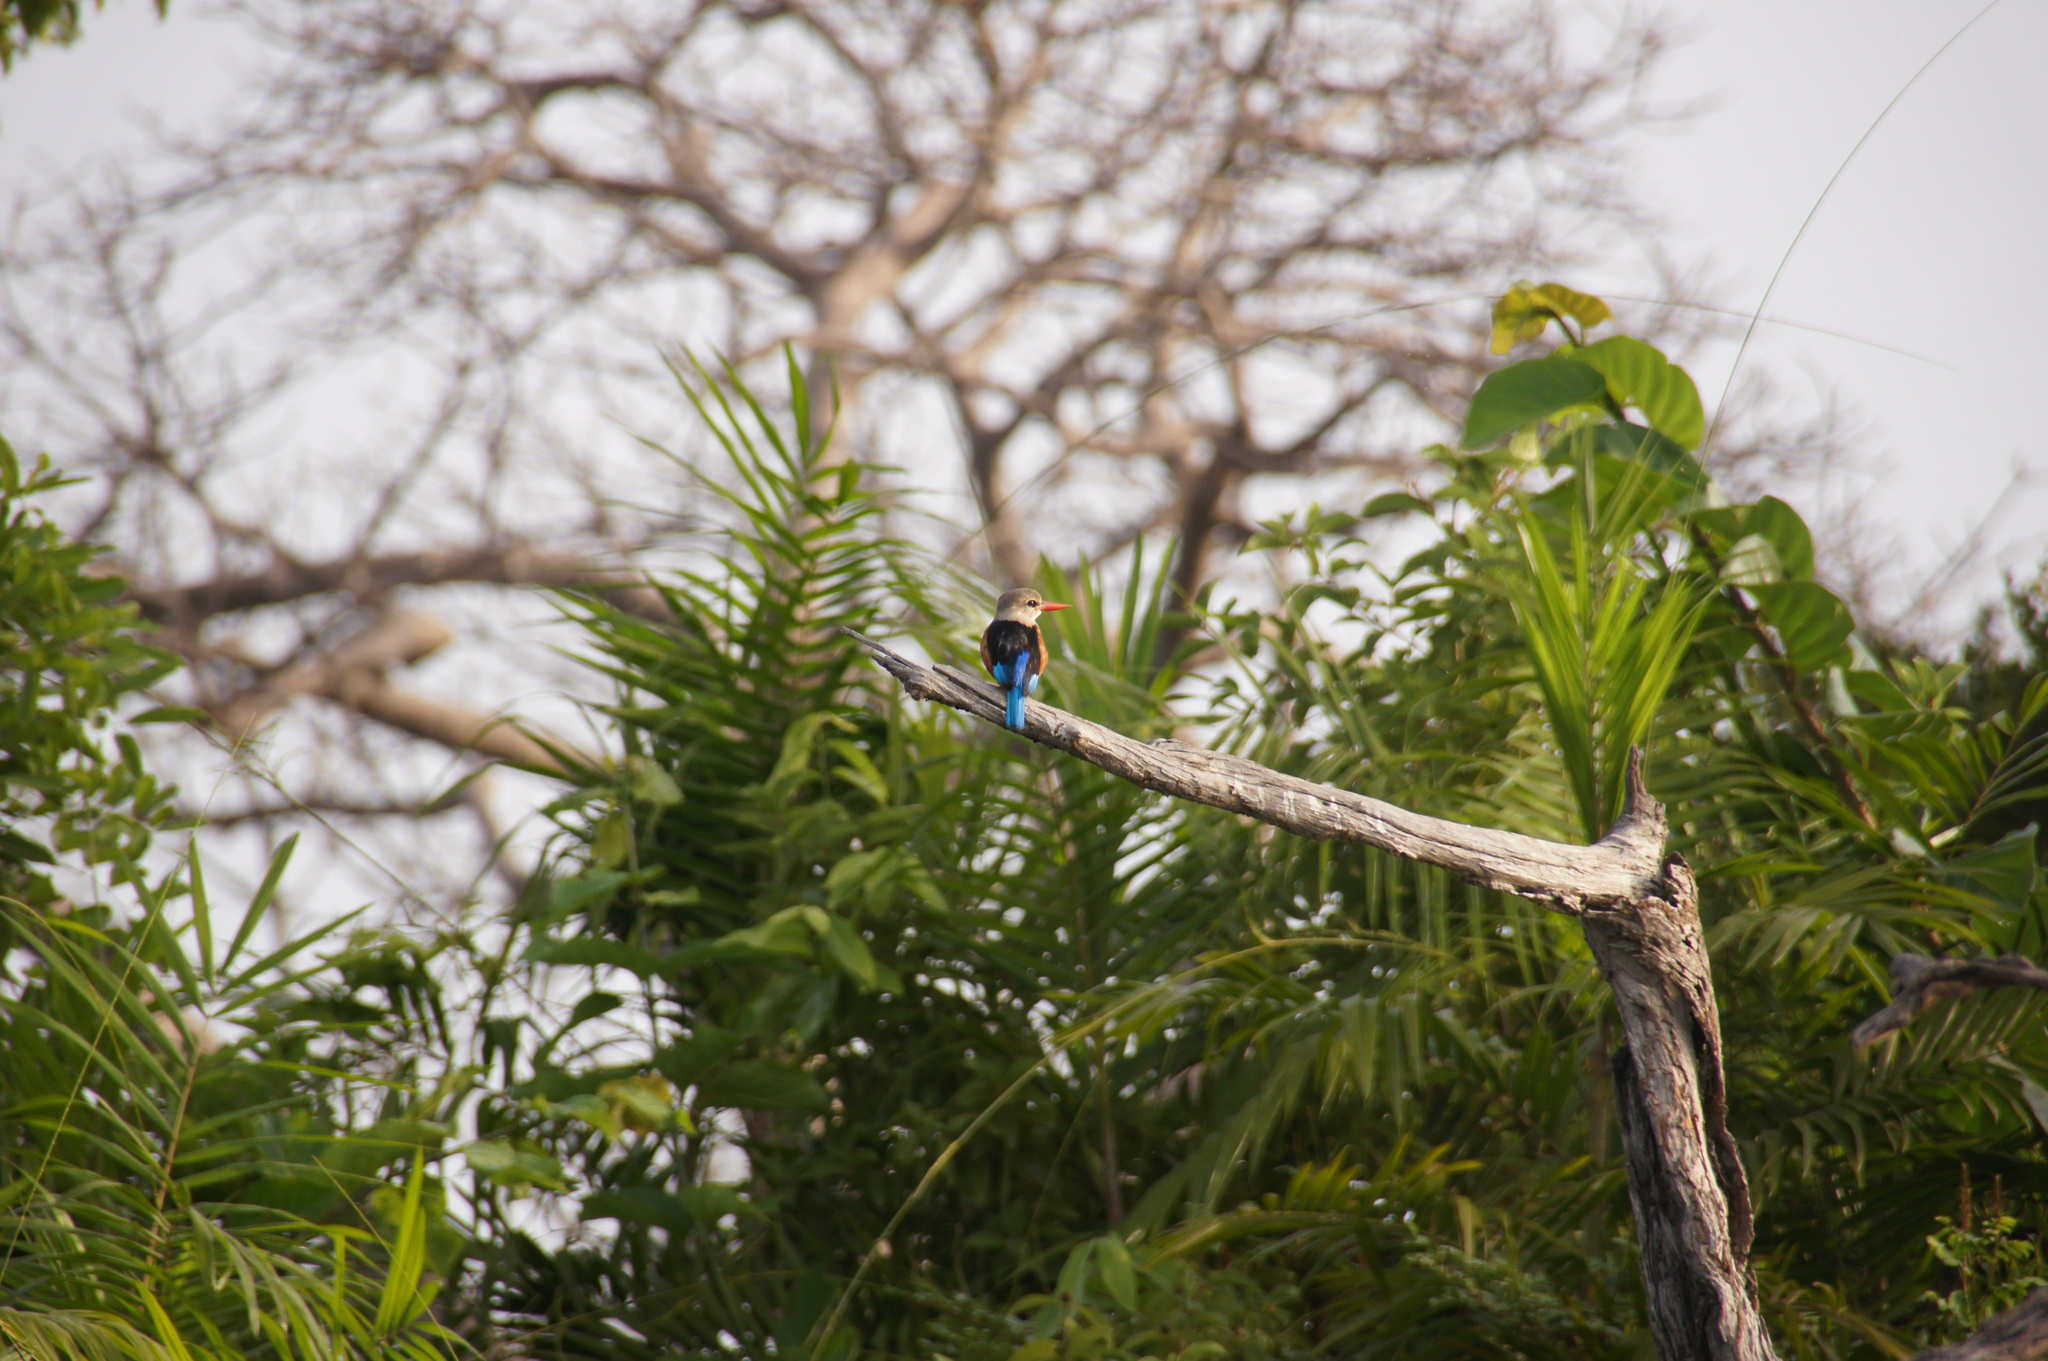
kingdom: Animalia
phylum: Chordata
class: Aves
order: Coraciiformes
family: Alcedinidae
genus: Halcyon
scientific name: Halcyon leucocephala
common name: Grey-headed kingfisher
